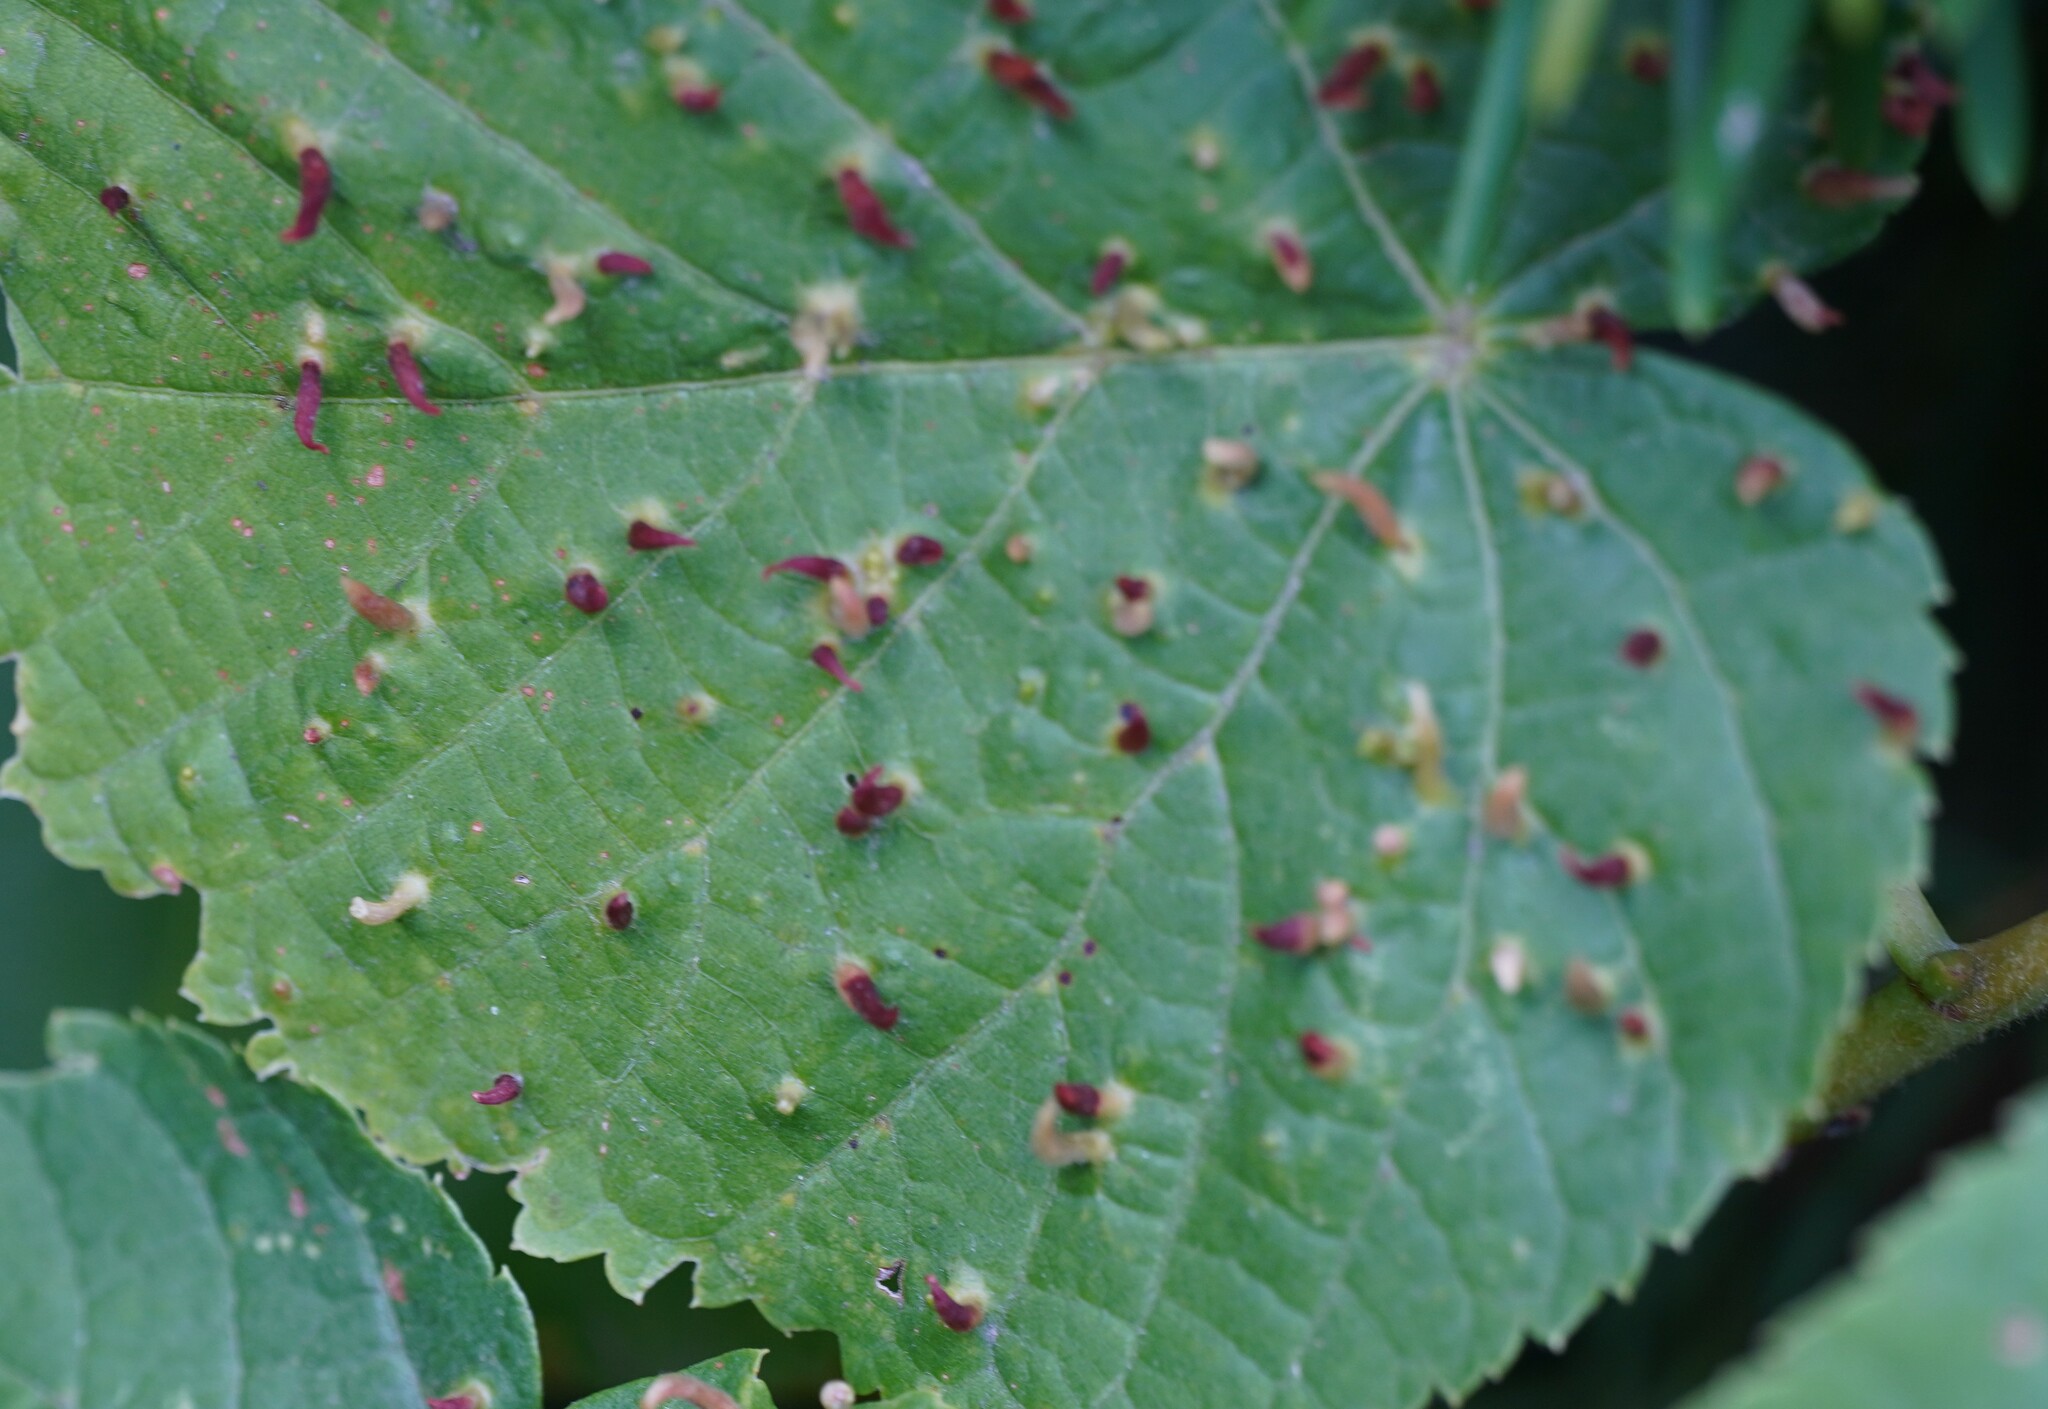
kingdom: Animalia
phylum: Arthropoda
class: Arachnida
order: Trombidiformes
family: Eriophyidae
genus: Eriophyes
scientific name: Eriophyes tiliae
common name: Red nail gall mite
